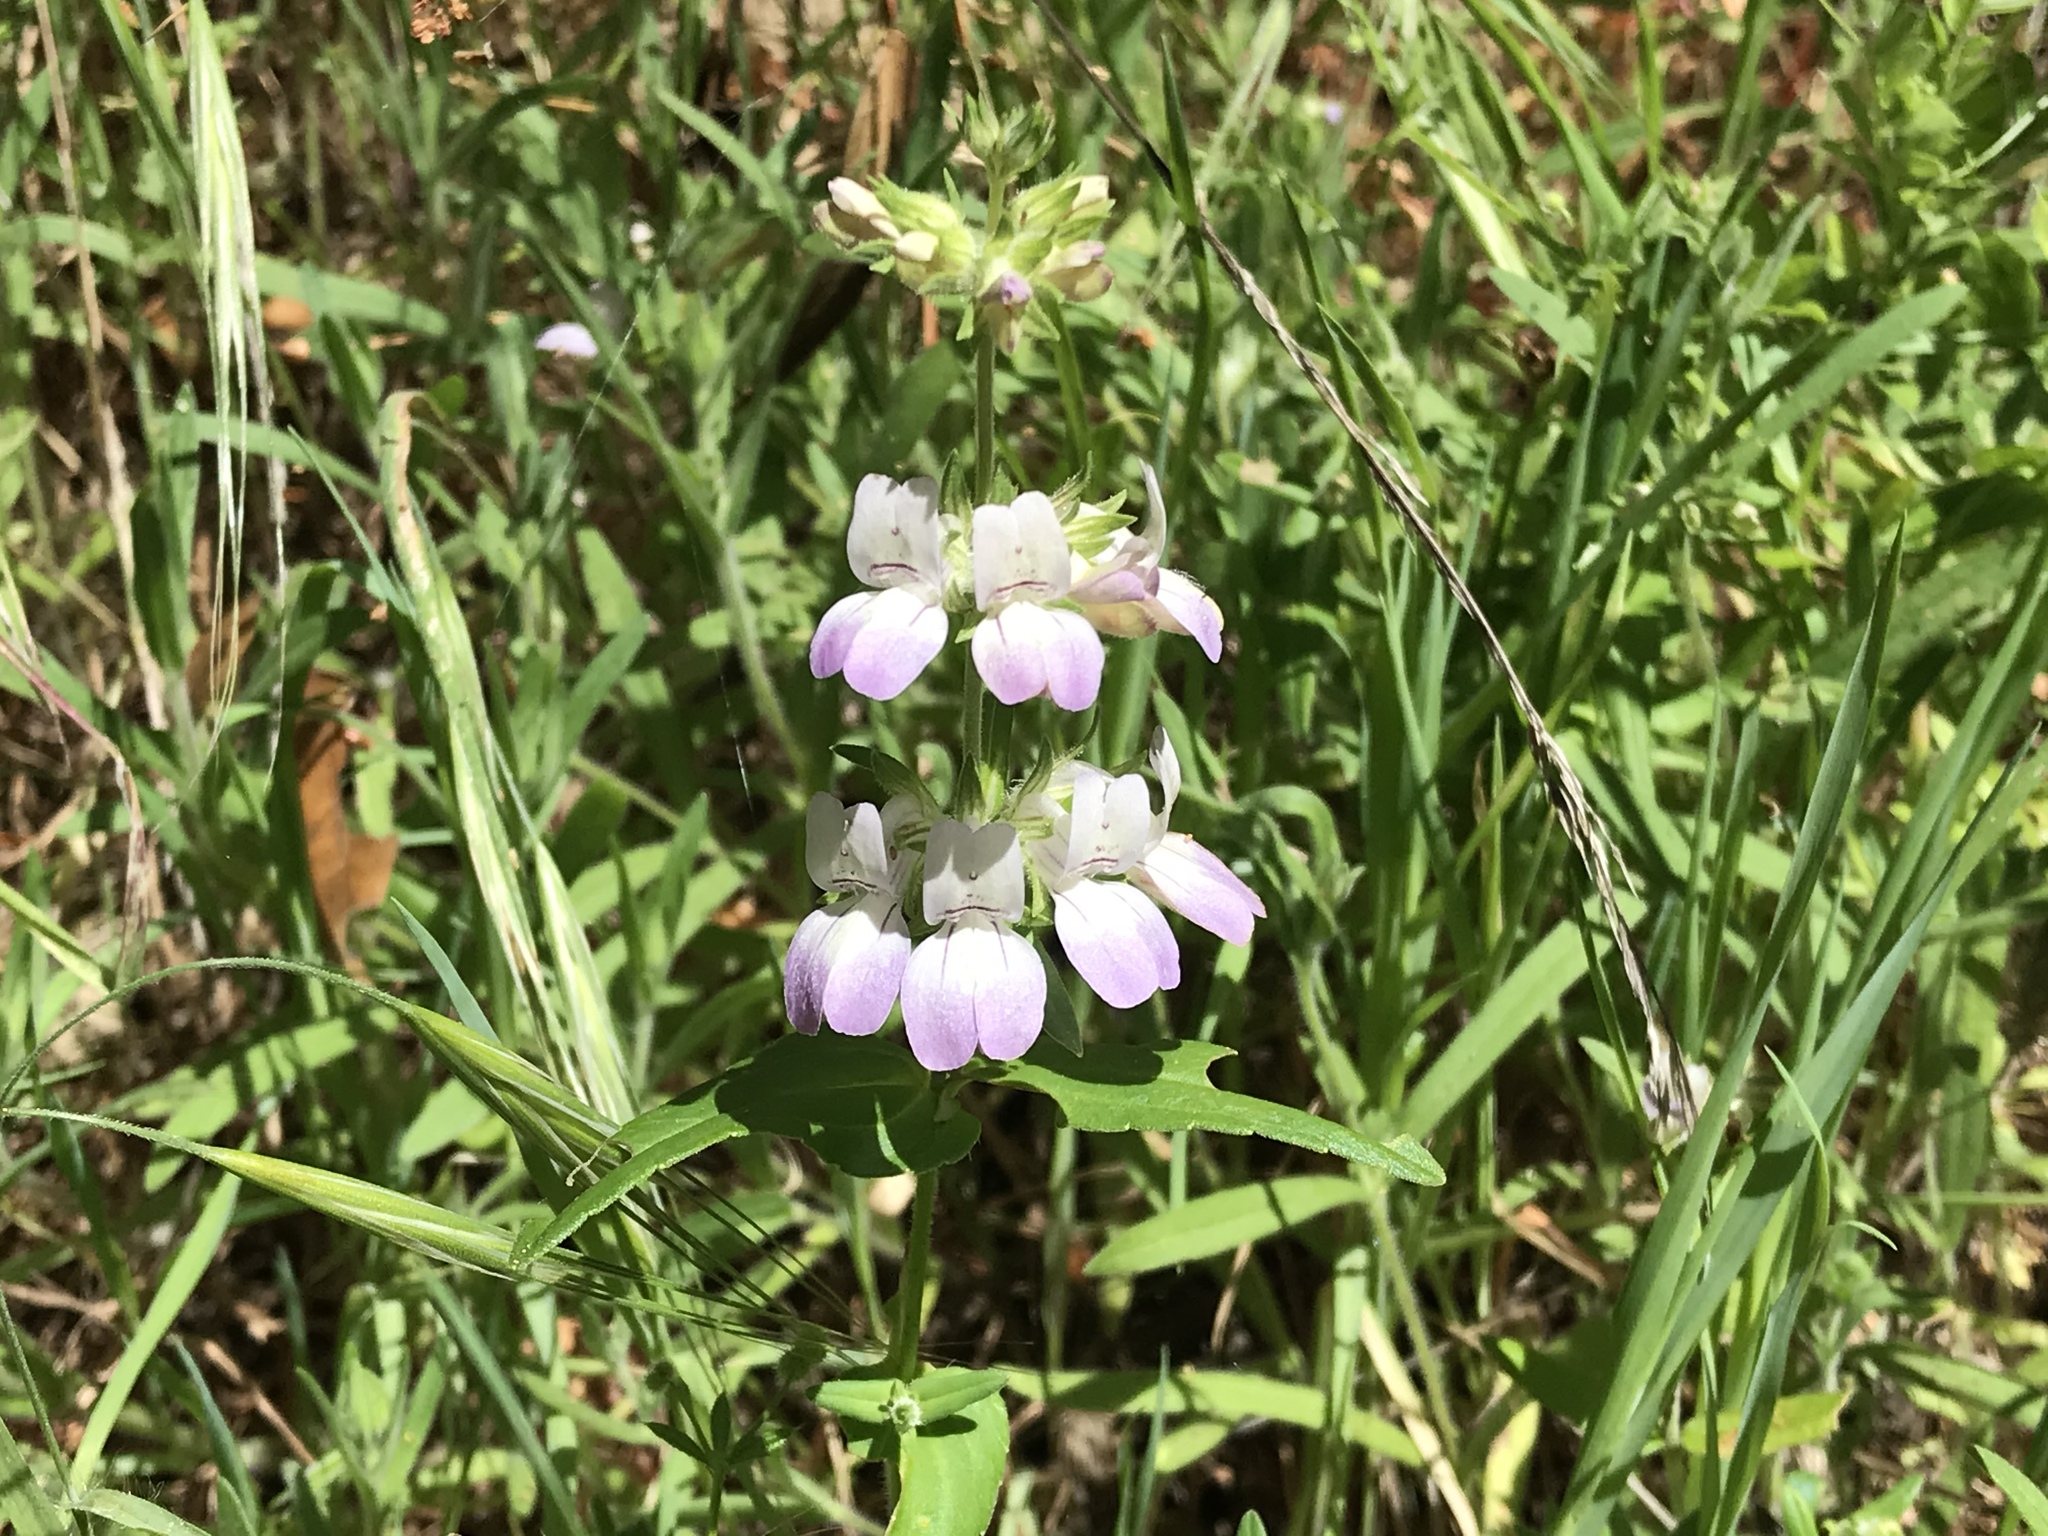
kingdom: Plantae
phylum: Tracheophyta
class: Magnoliopsida
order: Lamiales
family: Plantaginaceae
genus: Collinsia
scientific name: Collinsia heterophylla
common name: Chinese-houses
